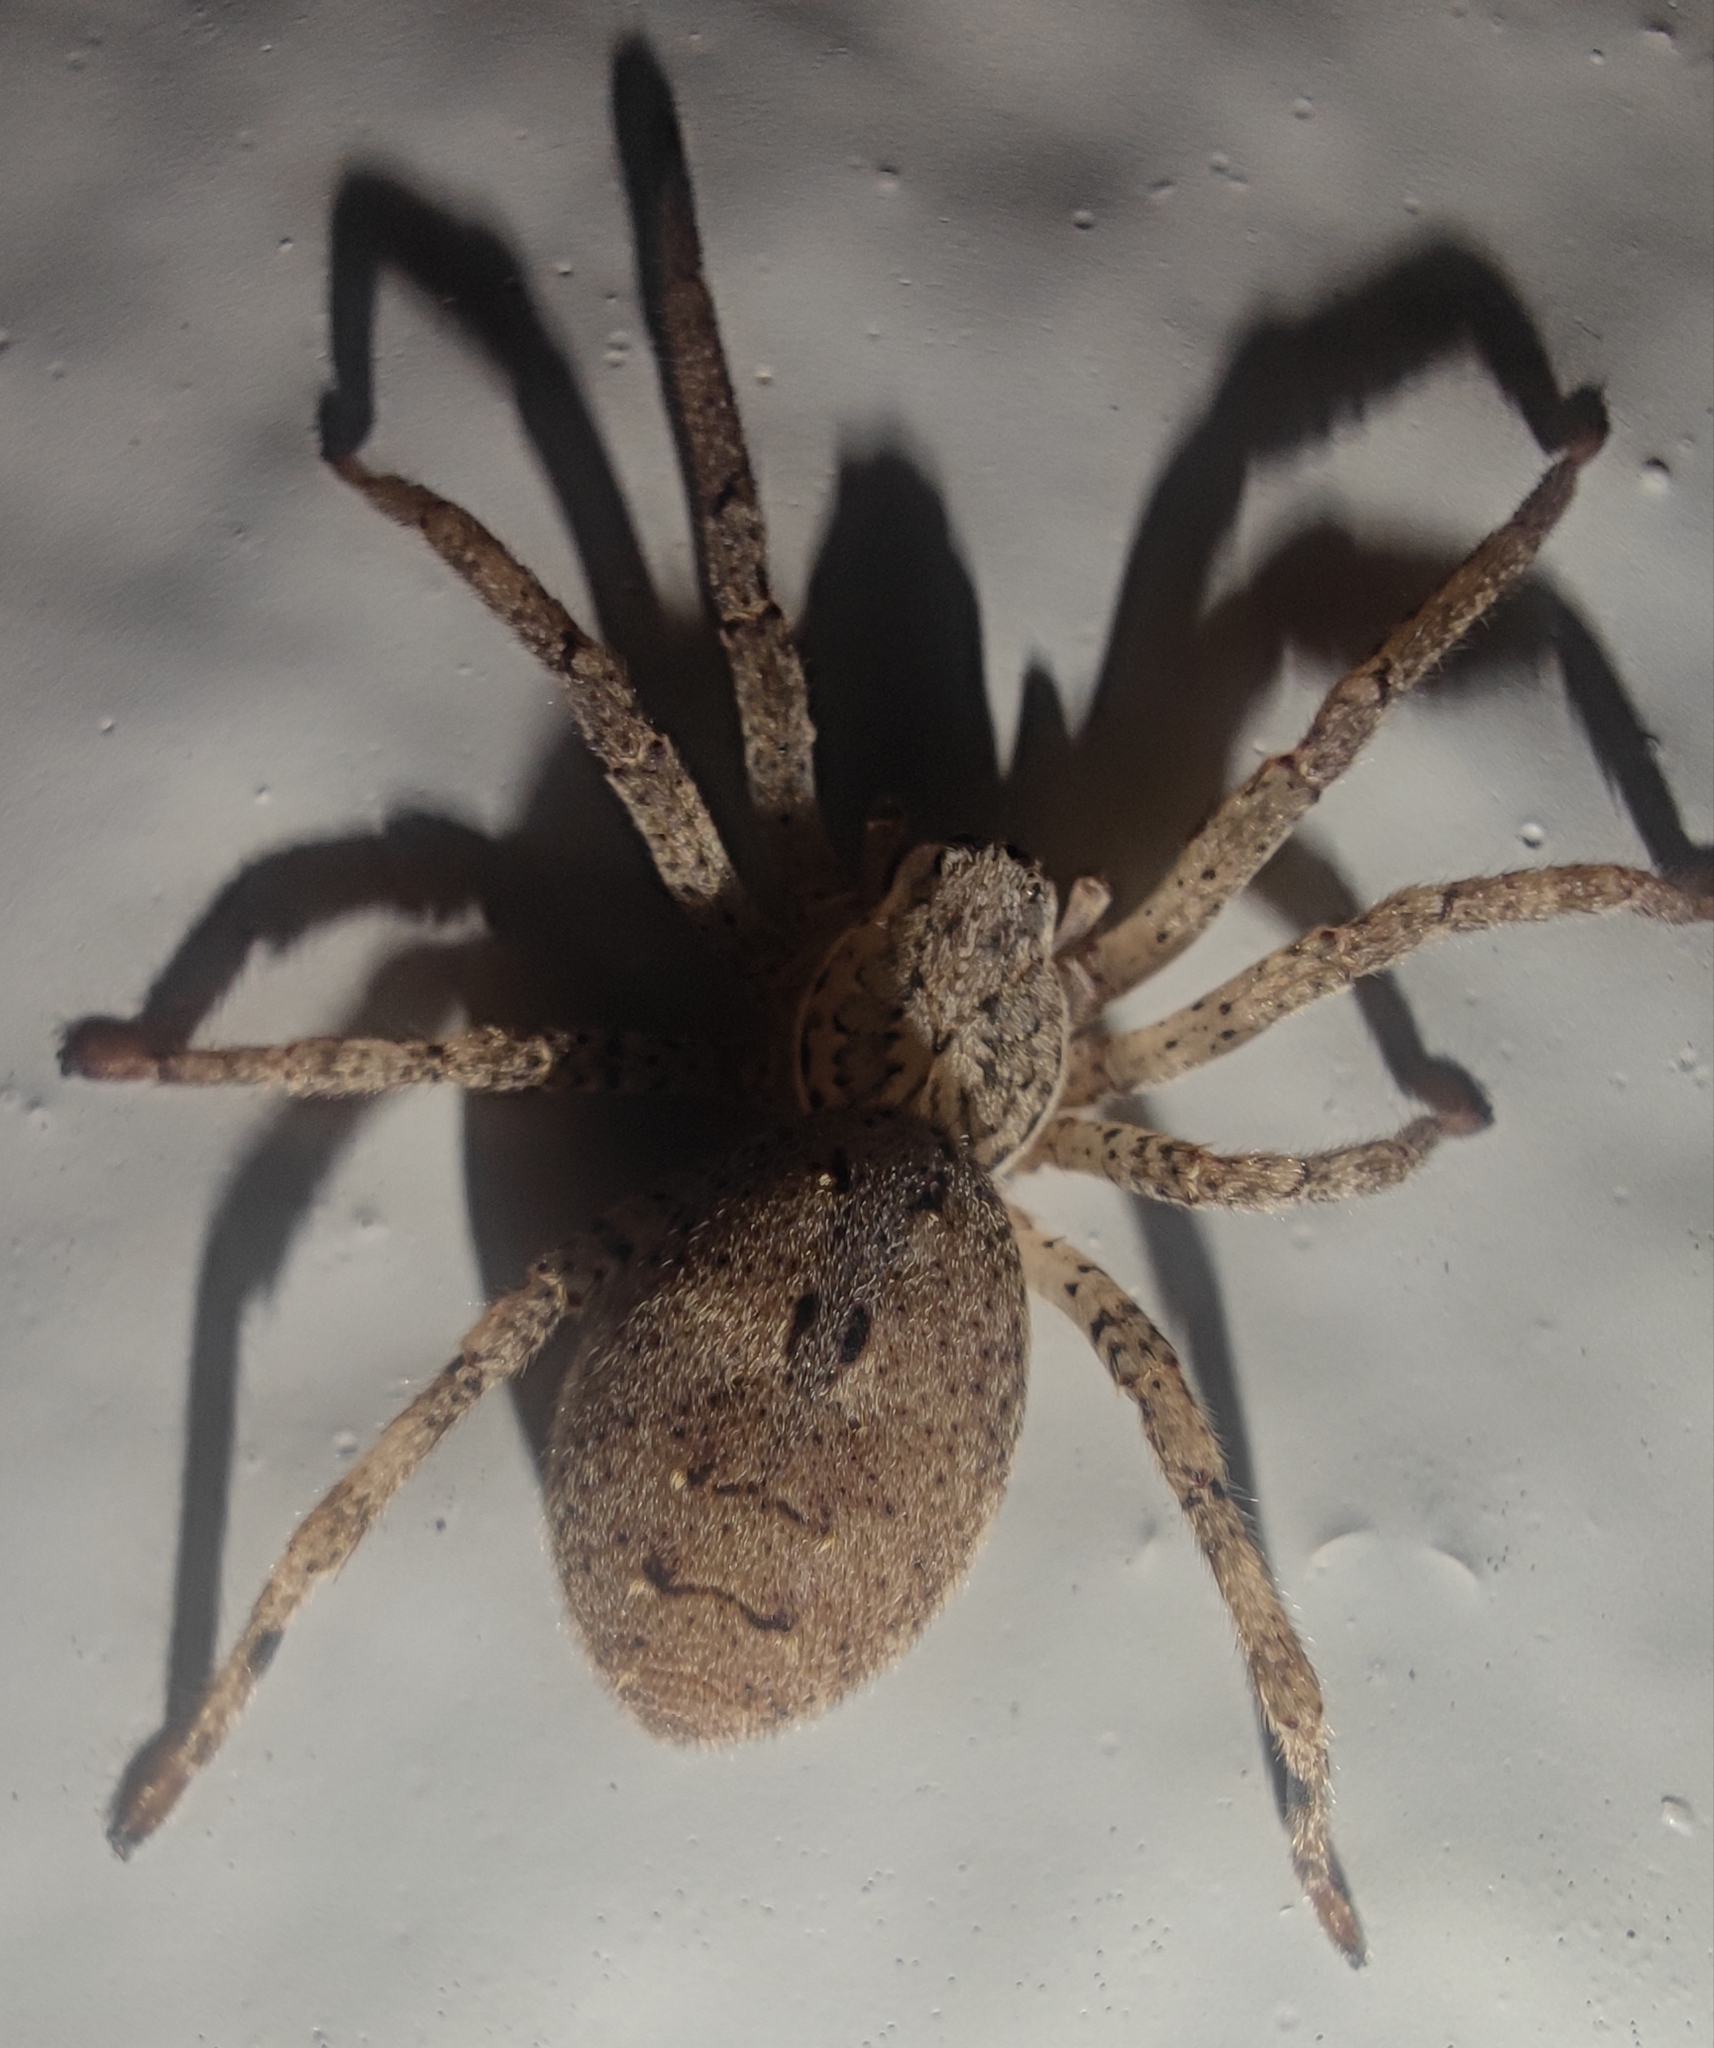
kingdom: Animalia
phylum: Arthropoda
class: Arachnida
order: Araneae
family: Zoropsidae
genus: Zoropsis
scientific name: Zoropsis spinimana
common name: Zoropsid spider
